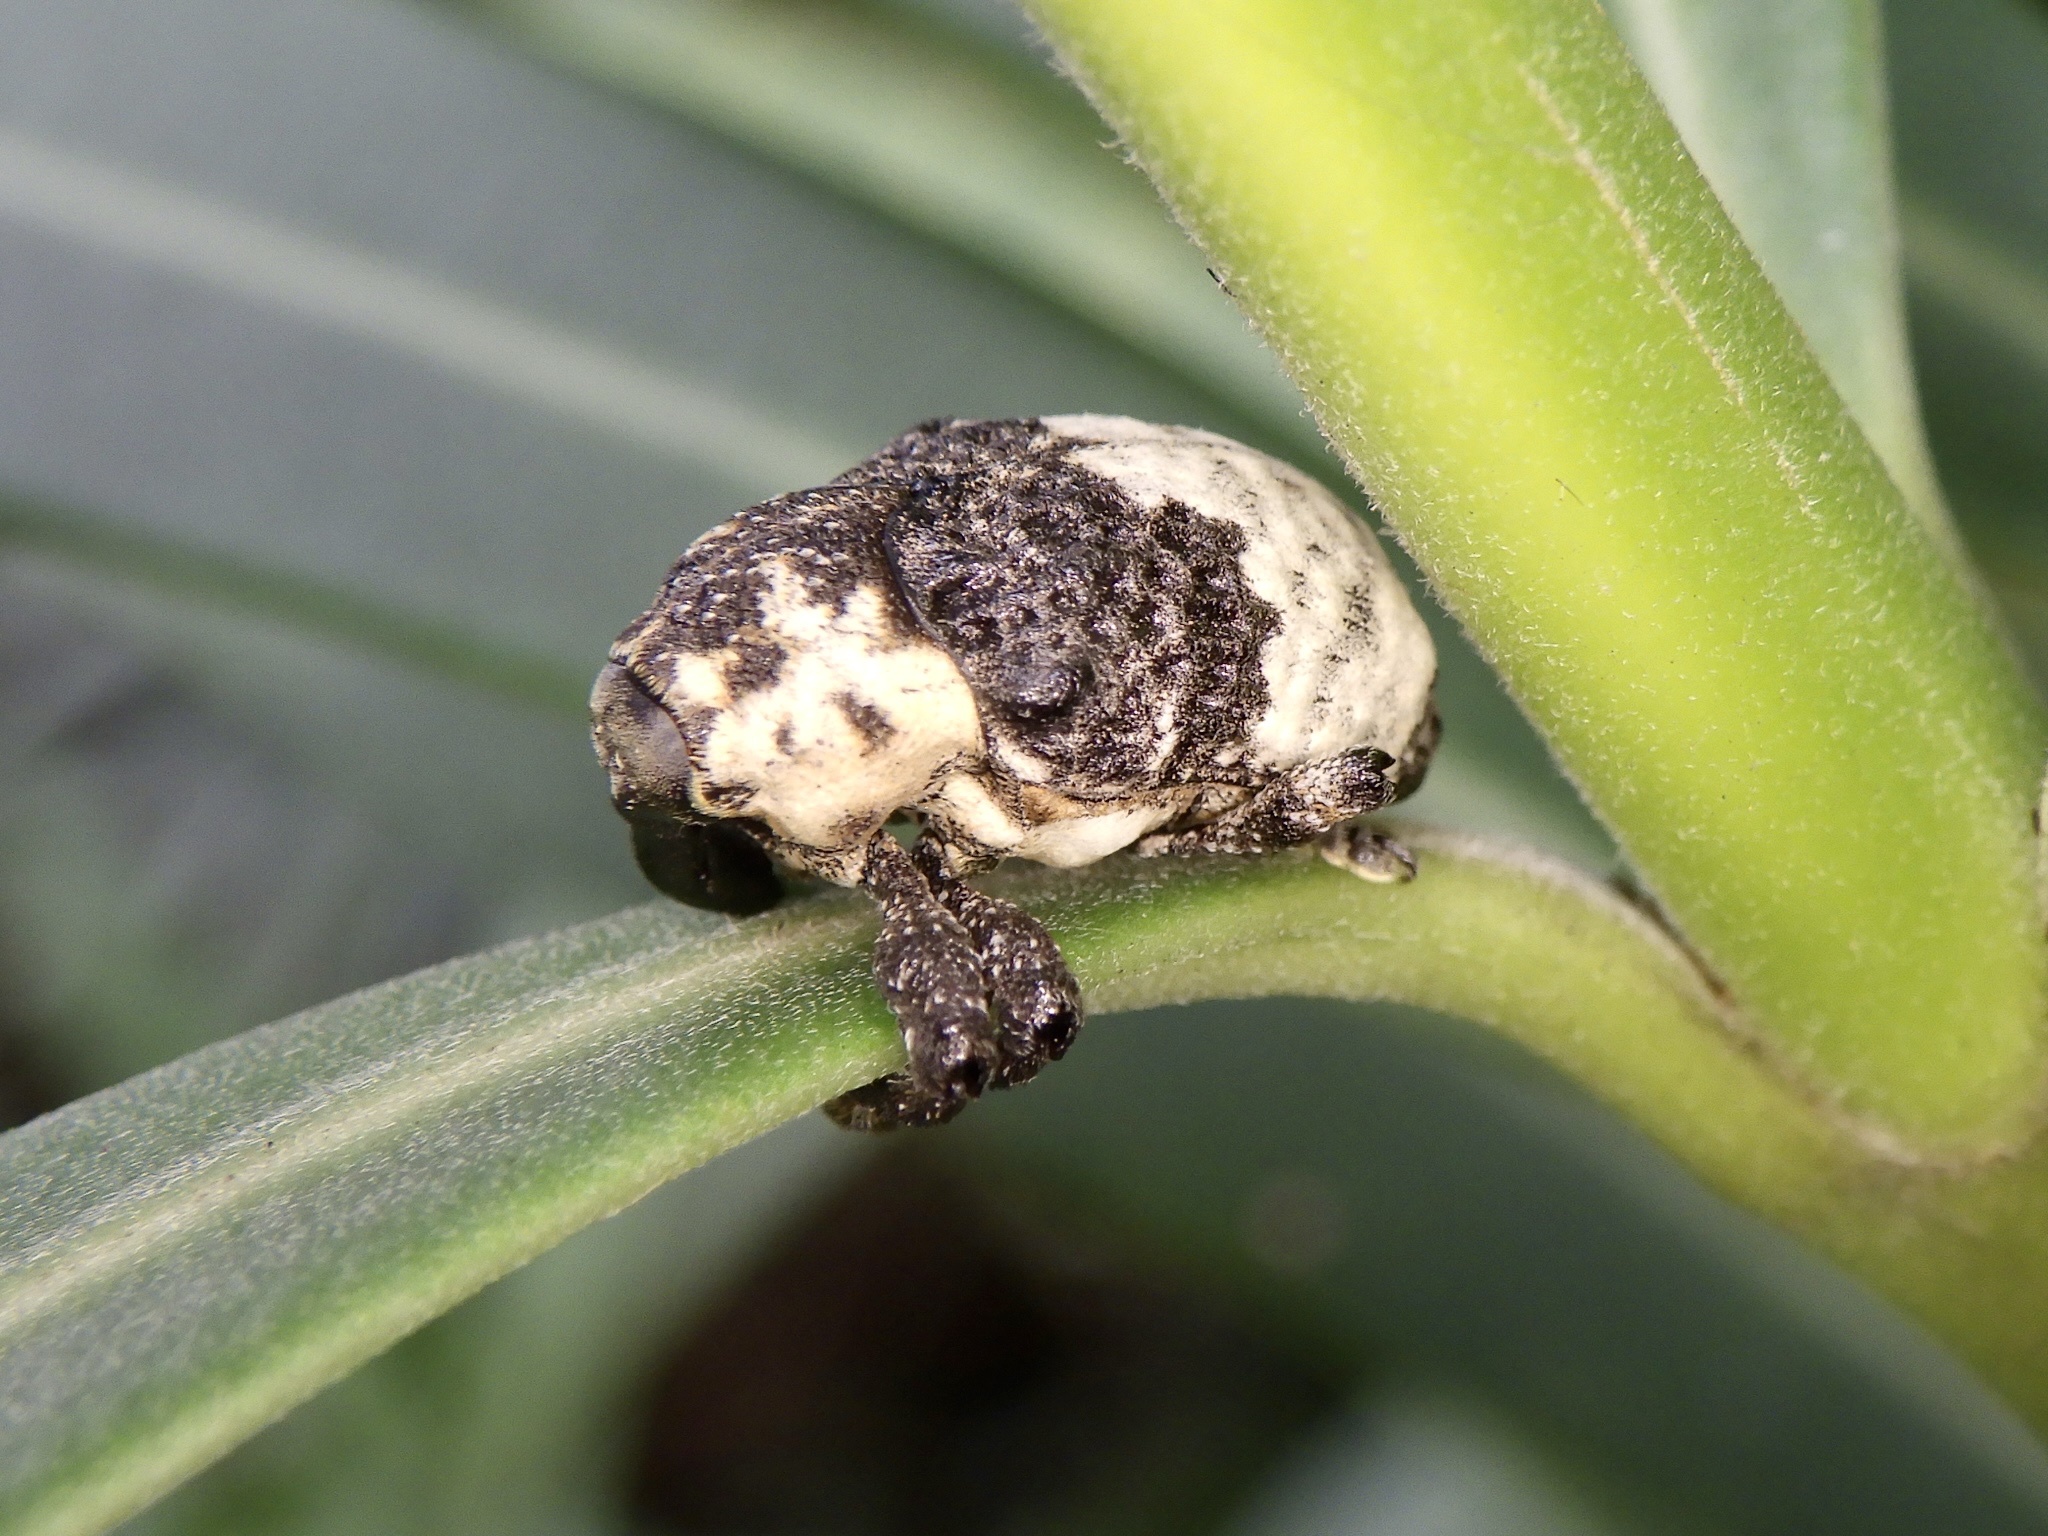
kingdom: Animalia
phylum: Arthropoda
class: Insecta
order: Coleoptera
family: Curculionidae
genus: Alcides
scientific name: Alcides trifidus
